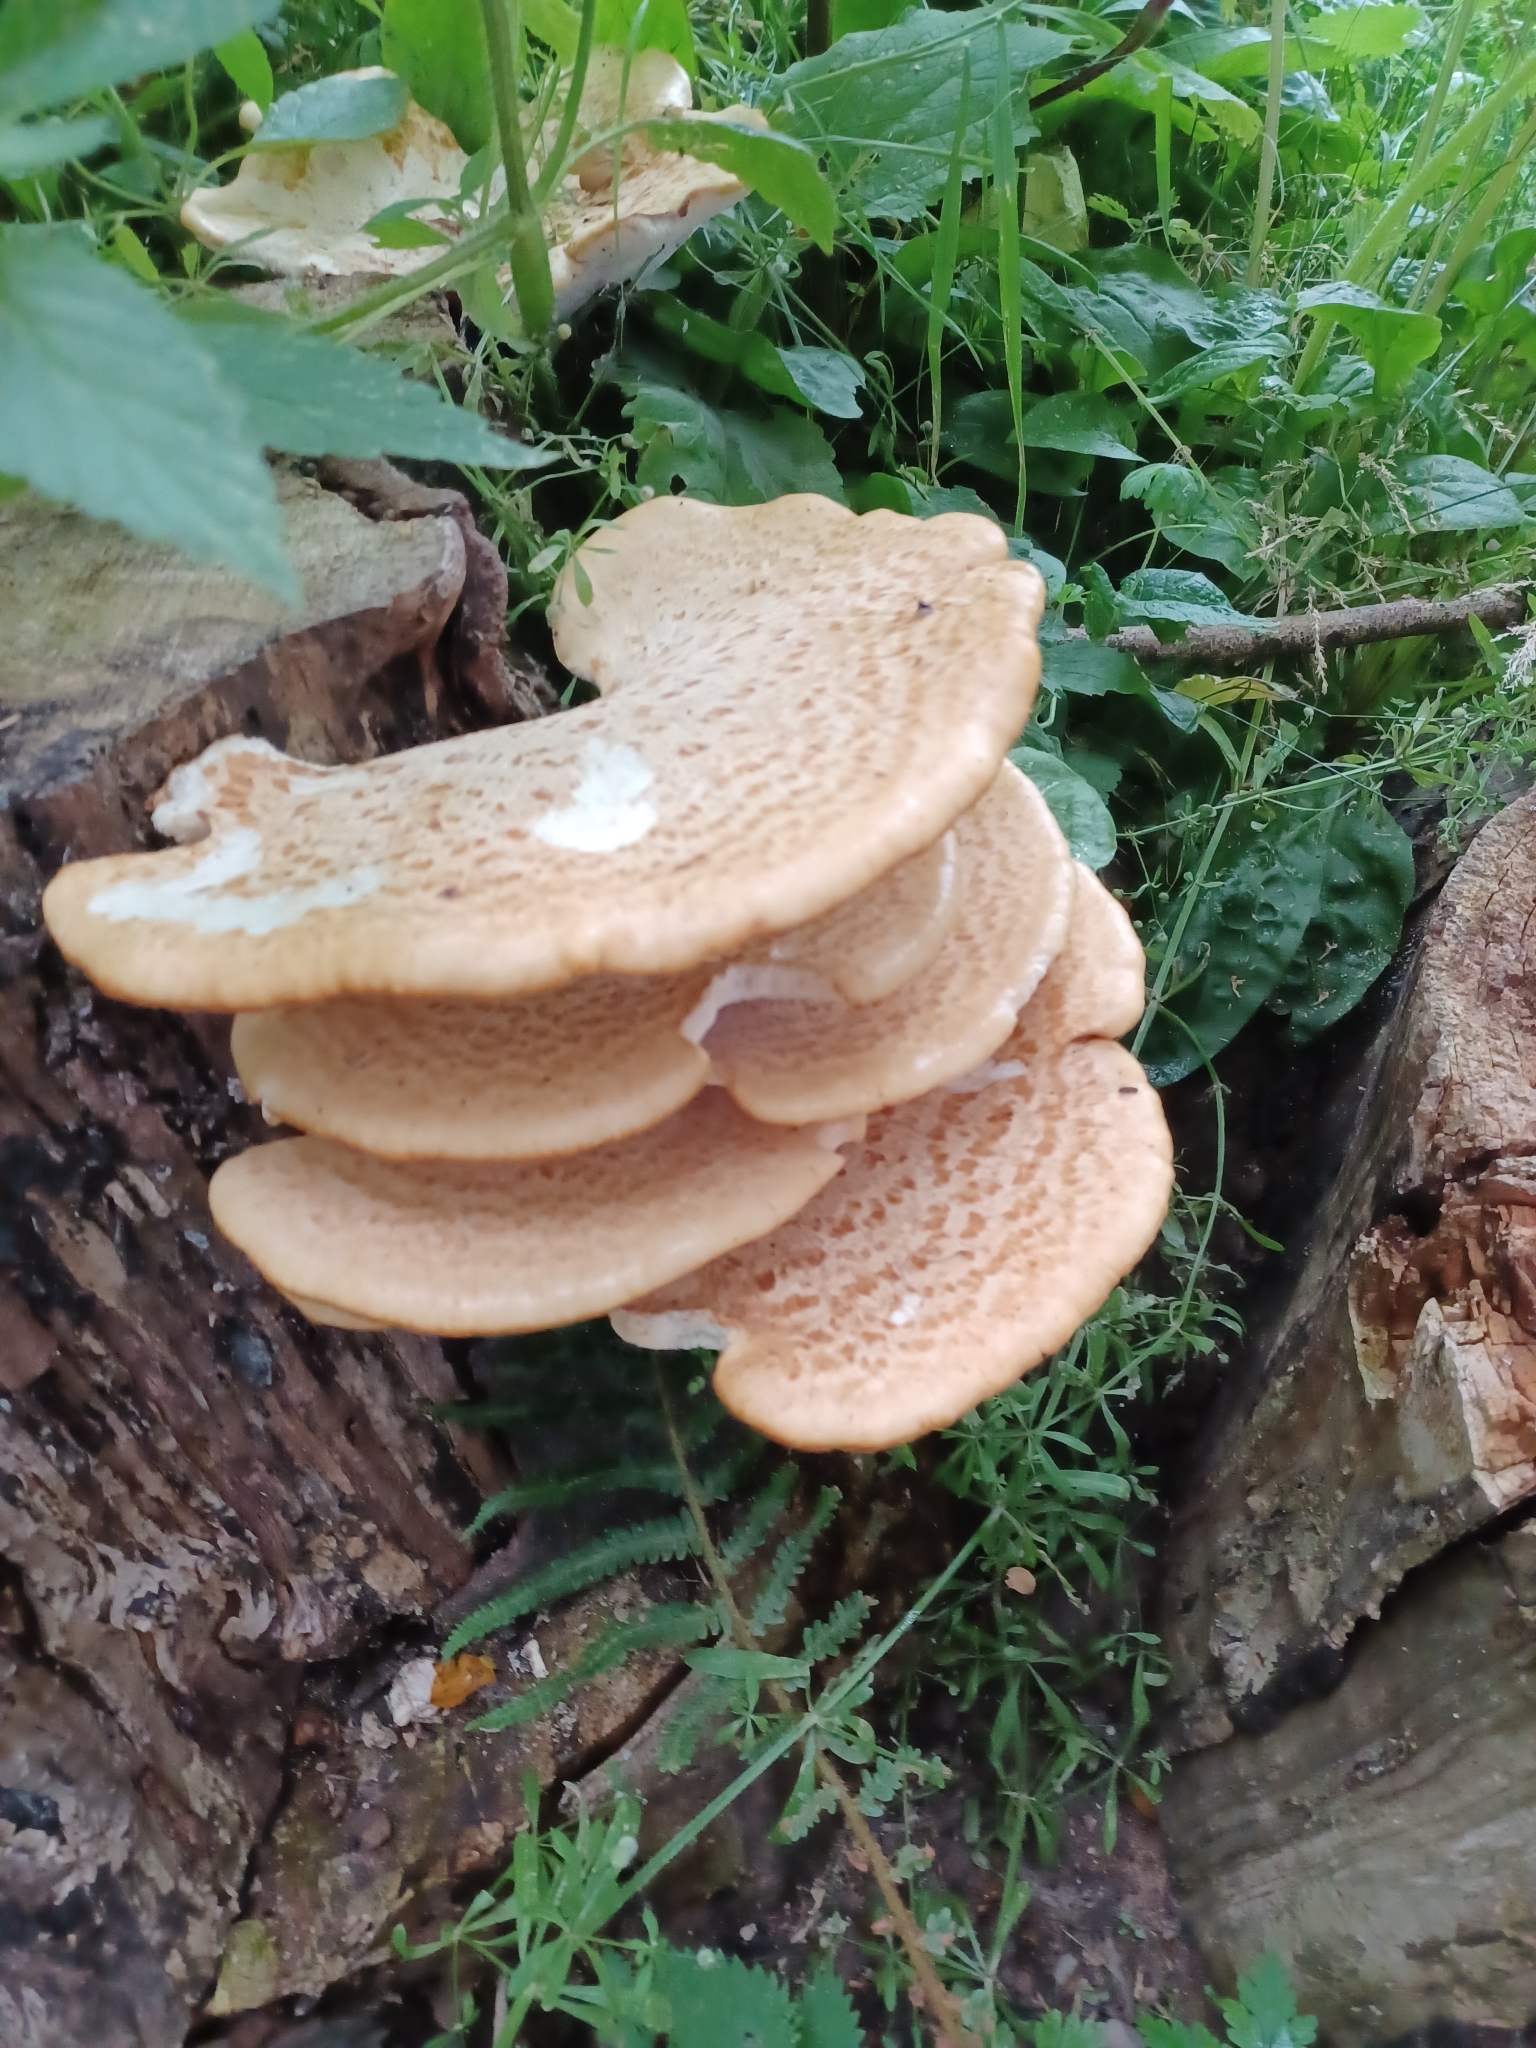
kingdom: Fungi
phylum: Basidiomycota
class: Agaricomycetes
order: Polyporales
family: Polyporaceae
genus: Cerioporus
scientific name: Cerioporus squamosus
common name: Dryad's saddle
